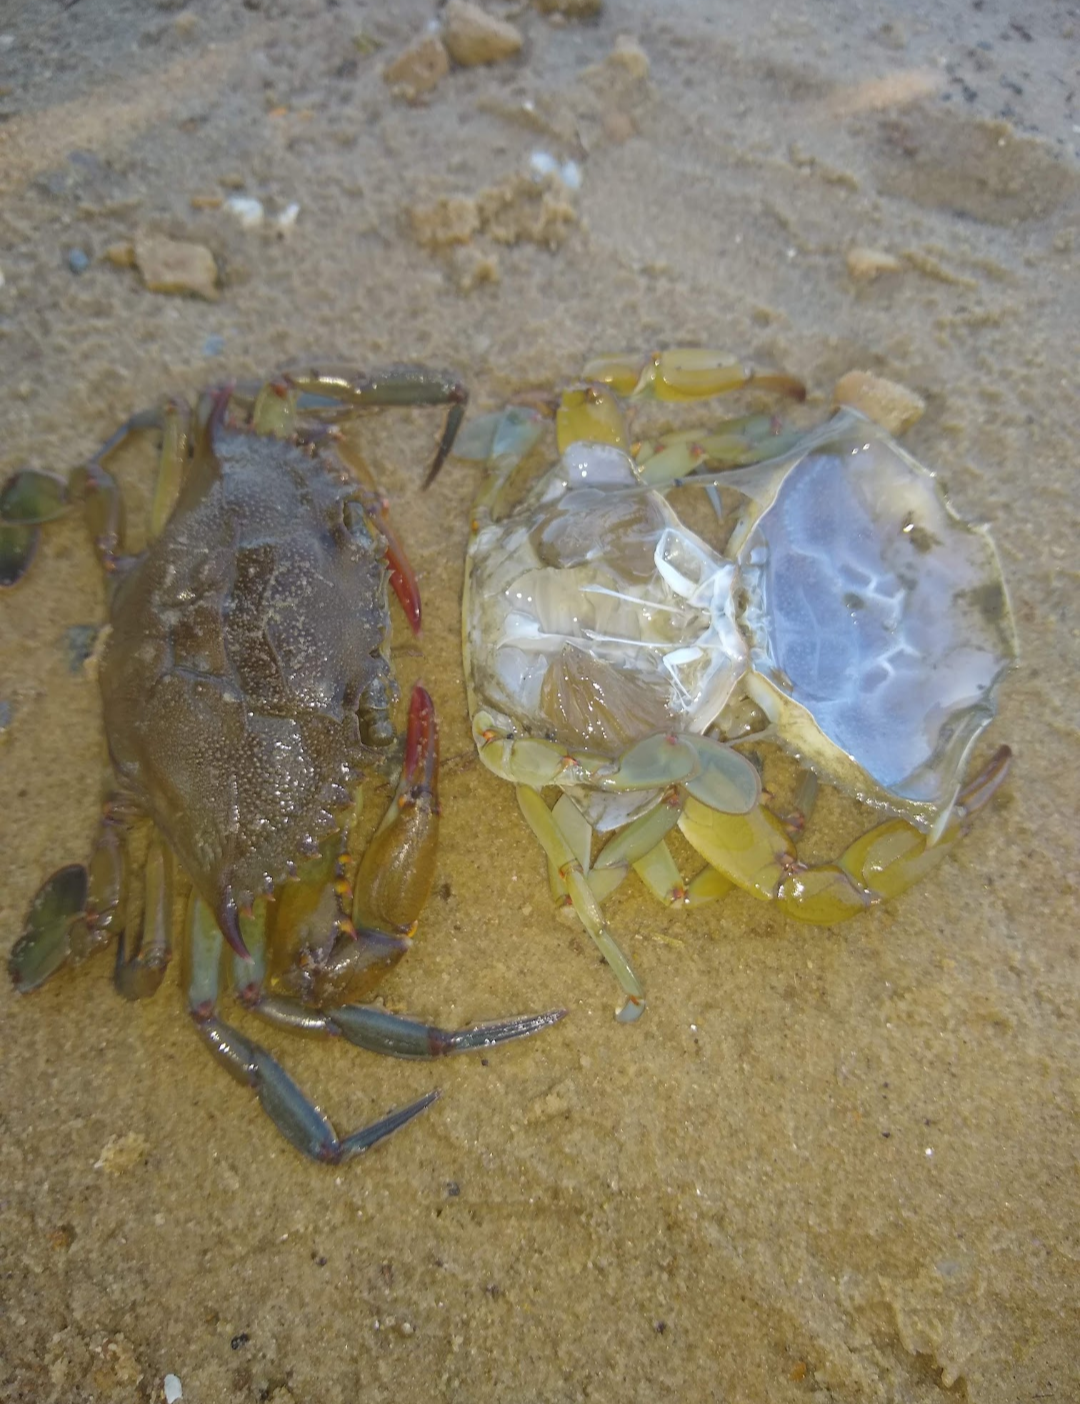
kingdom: Animalia
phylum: Arthropoda
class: Malacostraca
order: Decapoda
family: Portunidae
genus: Callinectes
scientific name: Callinectes sapidus
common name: Blue crab
